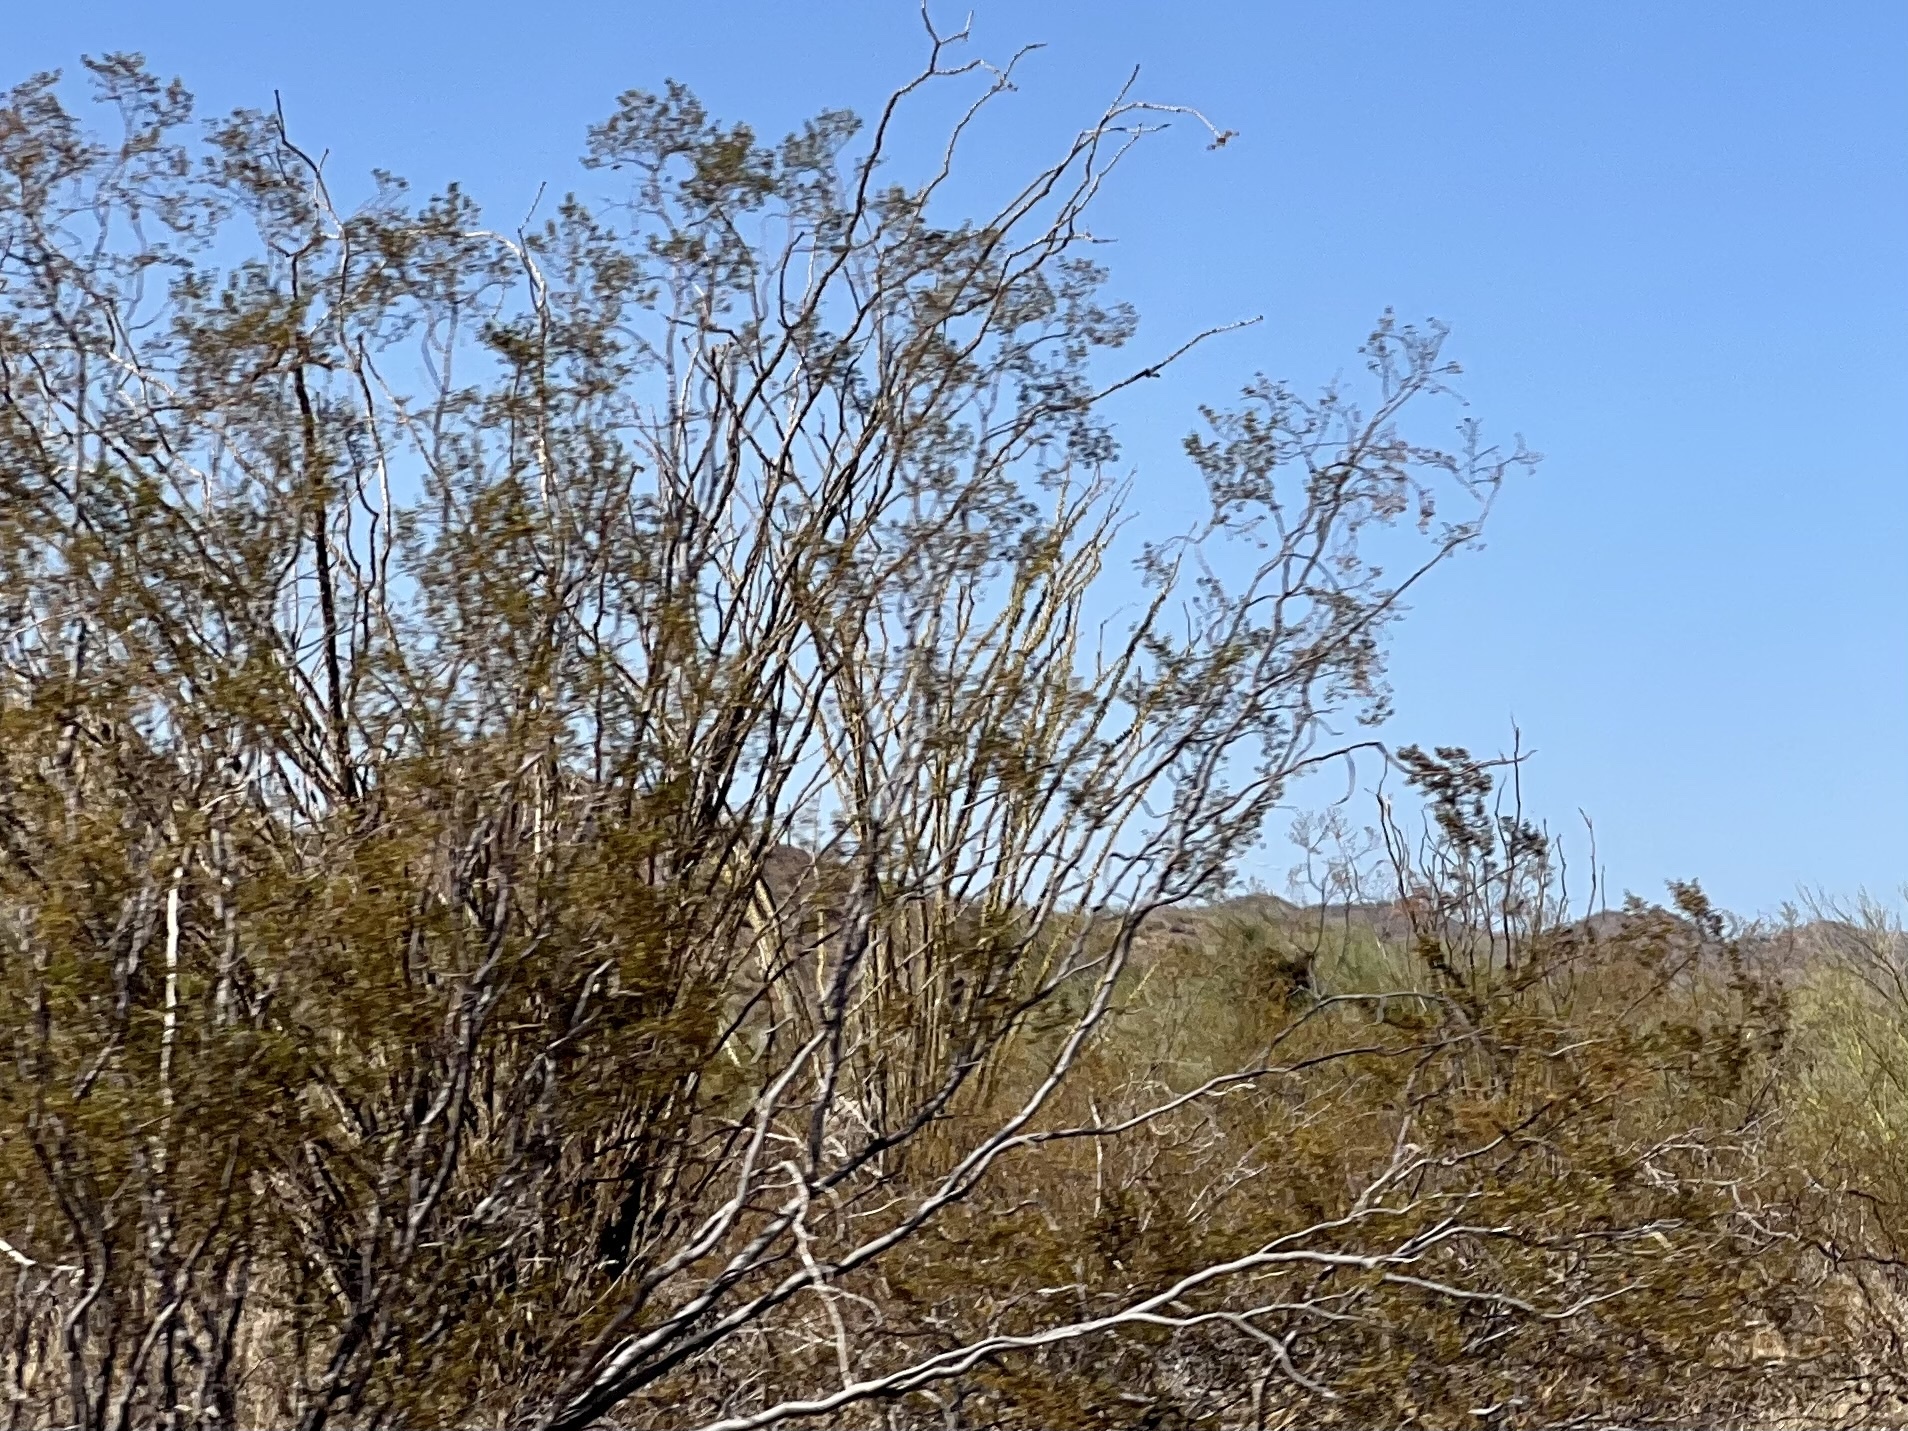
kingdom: Plantae
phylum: Tracheophyta
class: Magnoliopsida
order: Zygophyllales
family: Zygophyllaceae
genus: Larrea
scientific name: Larrea tridentata
